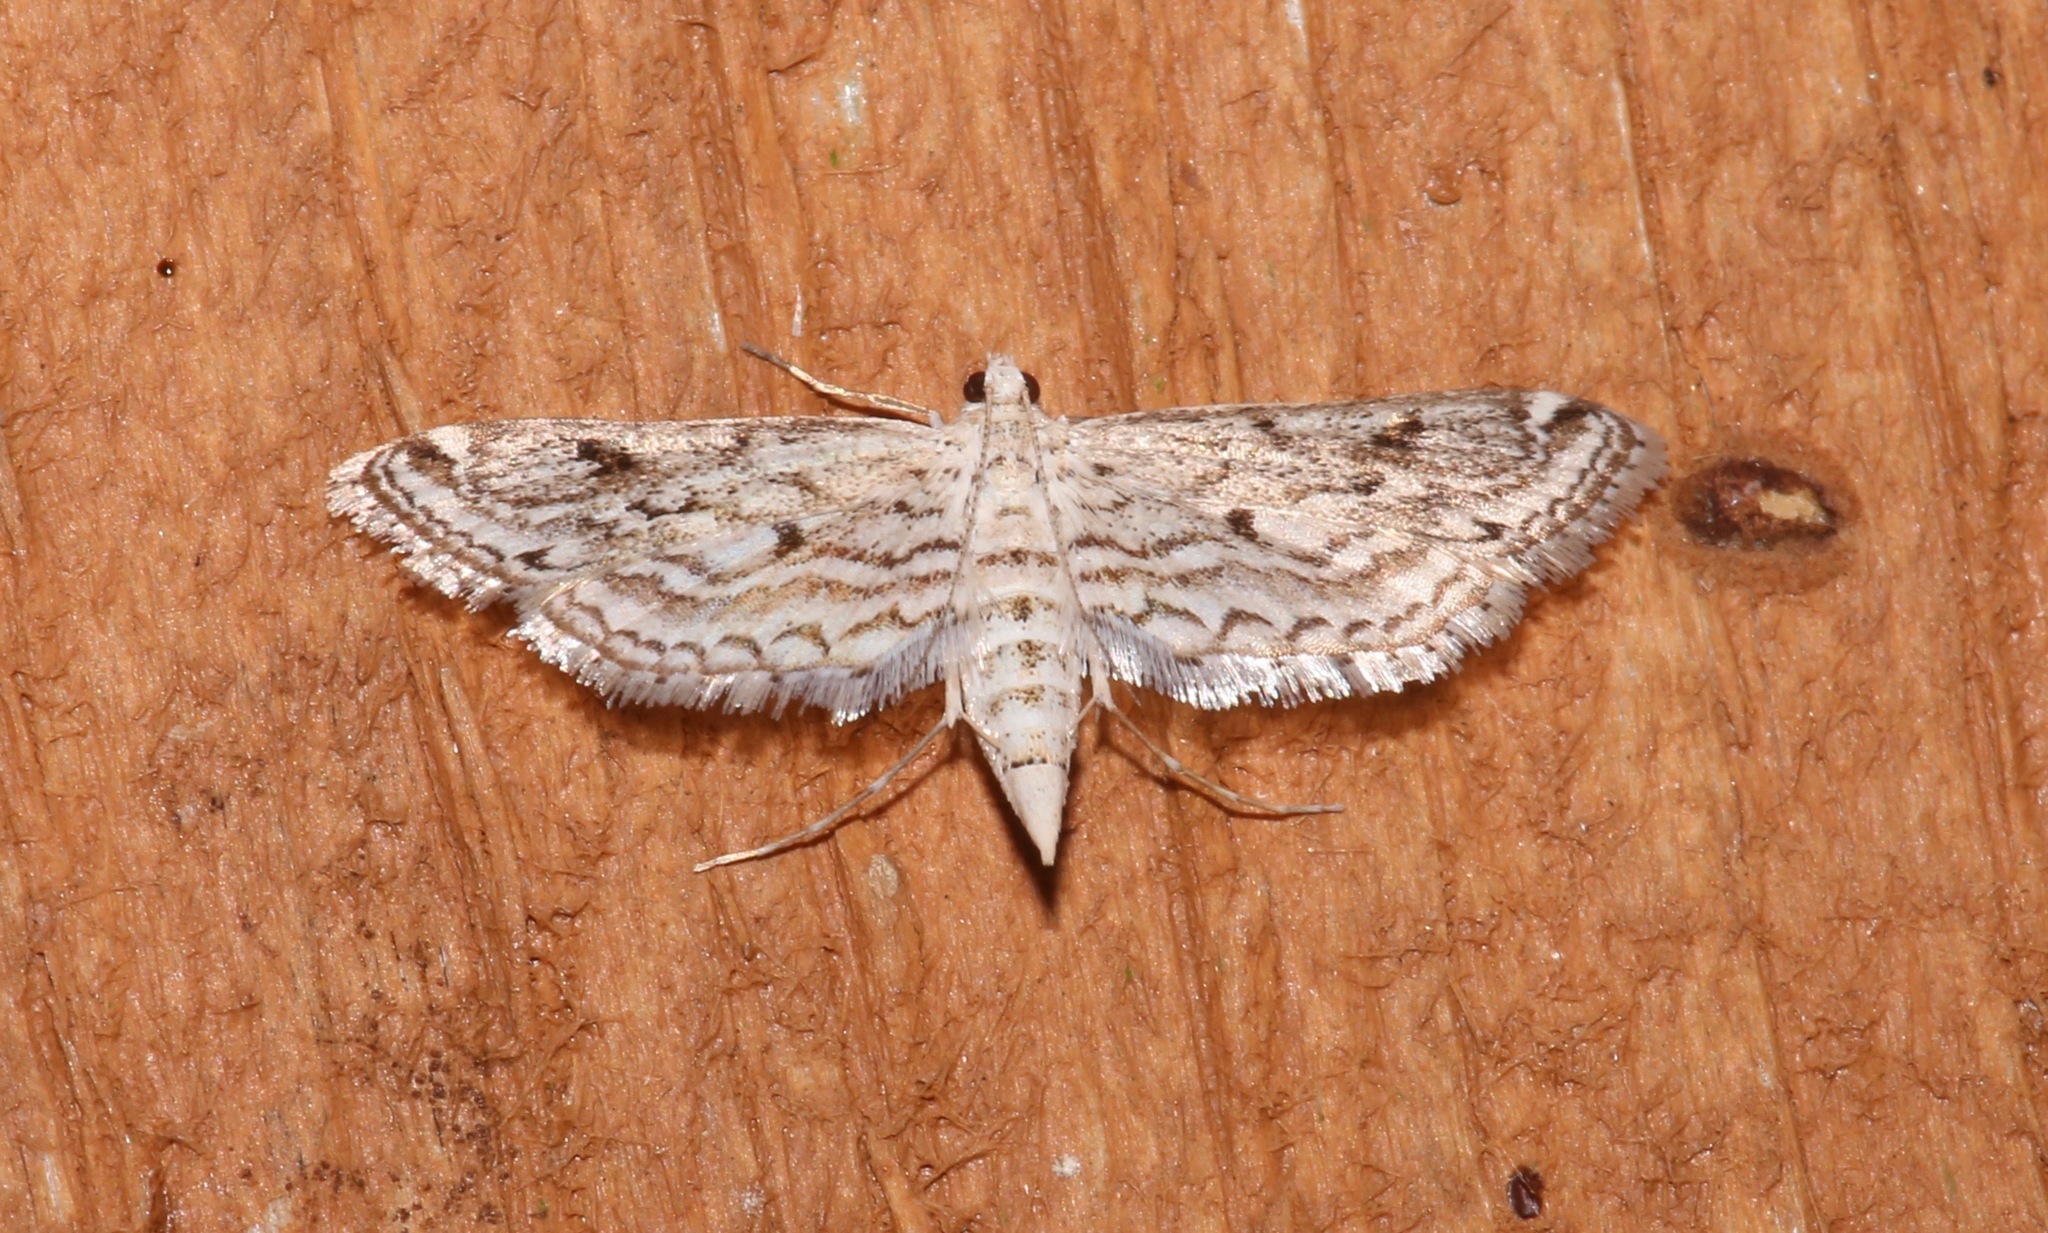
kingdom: Animalia
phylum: Arthropoda
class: Insecta
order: Lepidoptera
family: Crambidae
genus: Parapoynx
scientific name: Parapoynx allionealis
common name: Bladderwort casemaker
